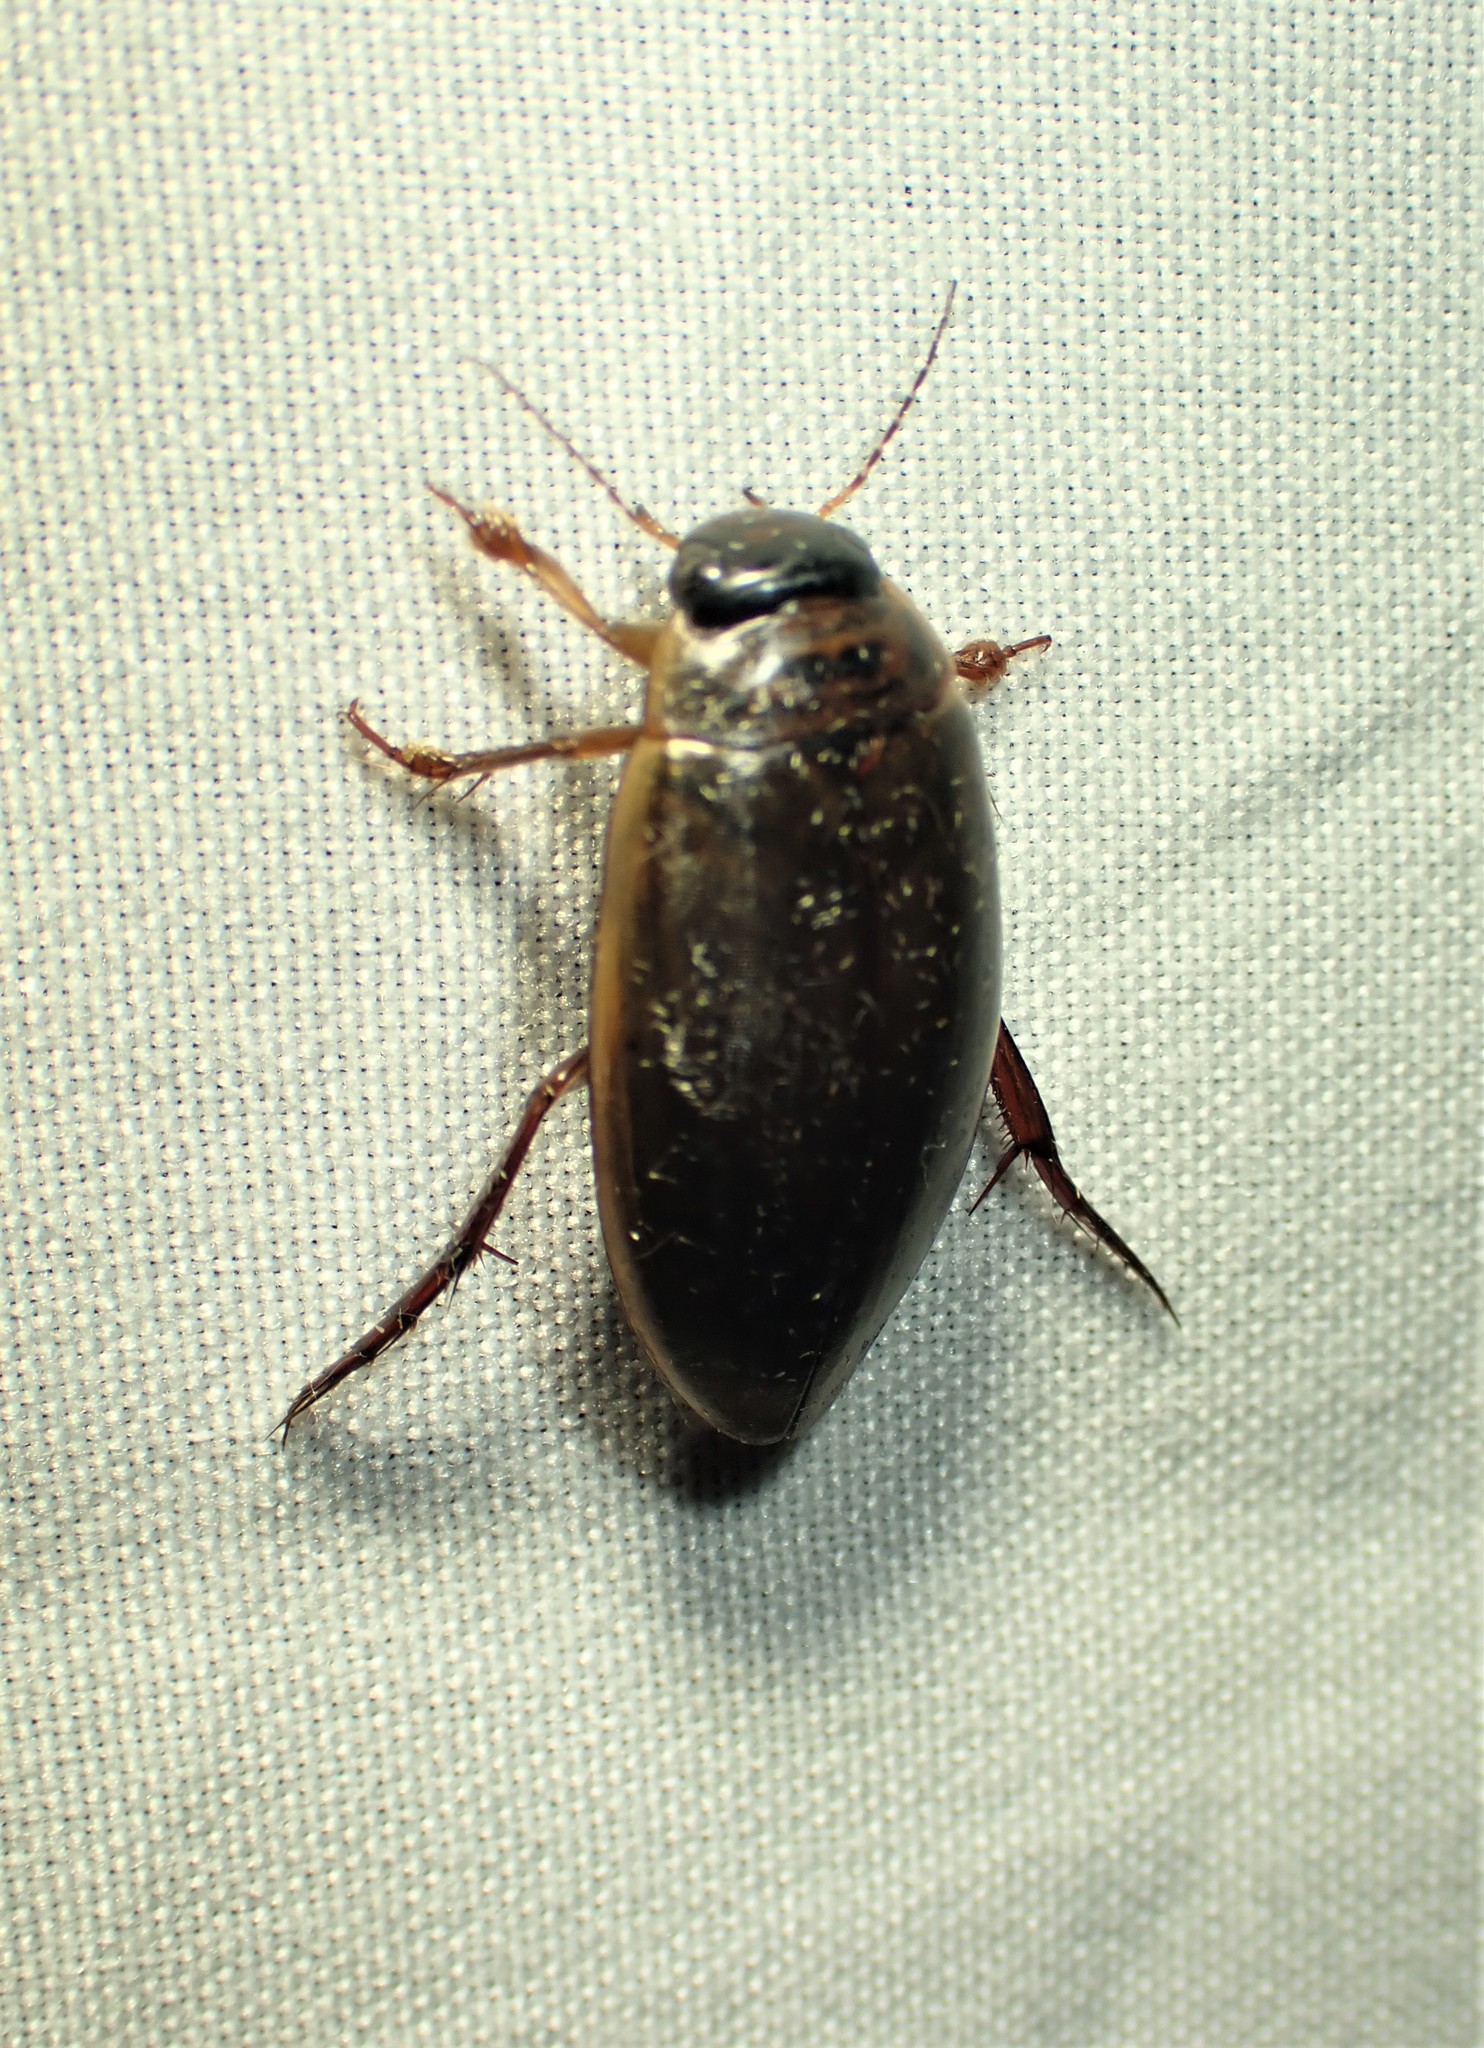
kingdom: Animalia
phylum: Arthropoda
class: Insecta
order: Coleoptera
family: Dytiscidae
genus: Colymbetes
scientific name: Colymbetes sculptilis
